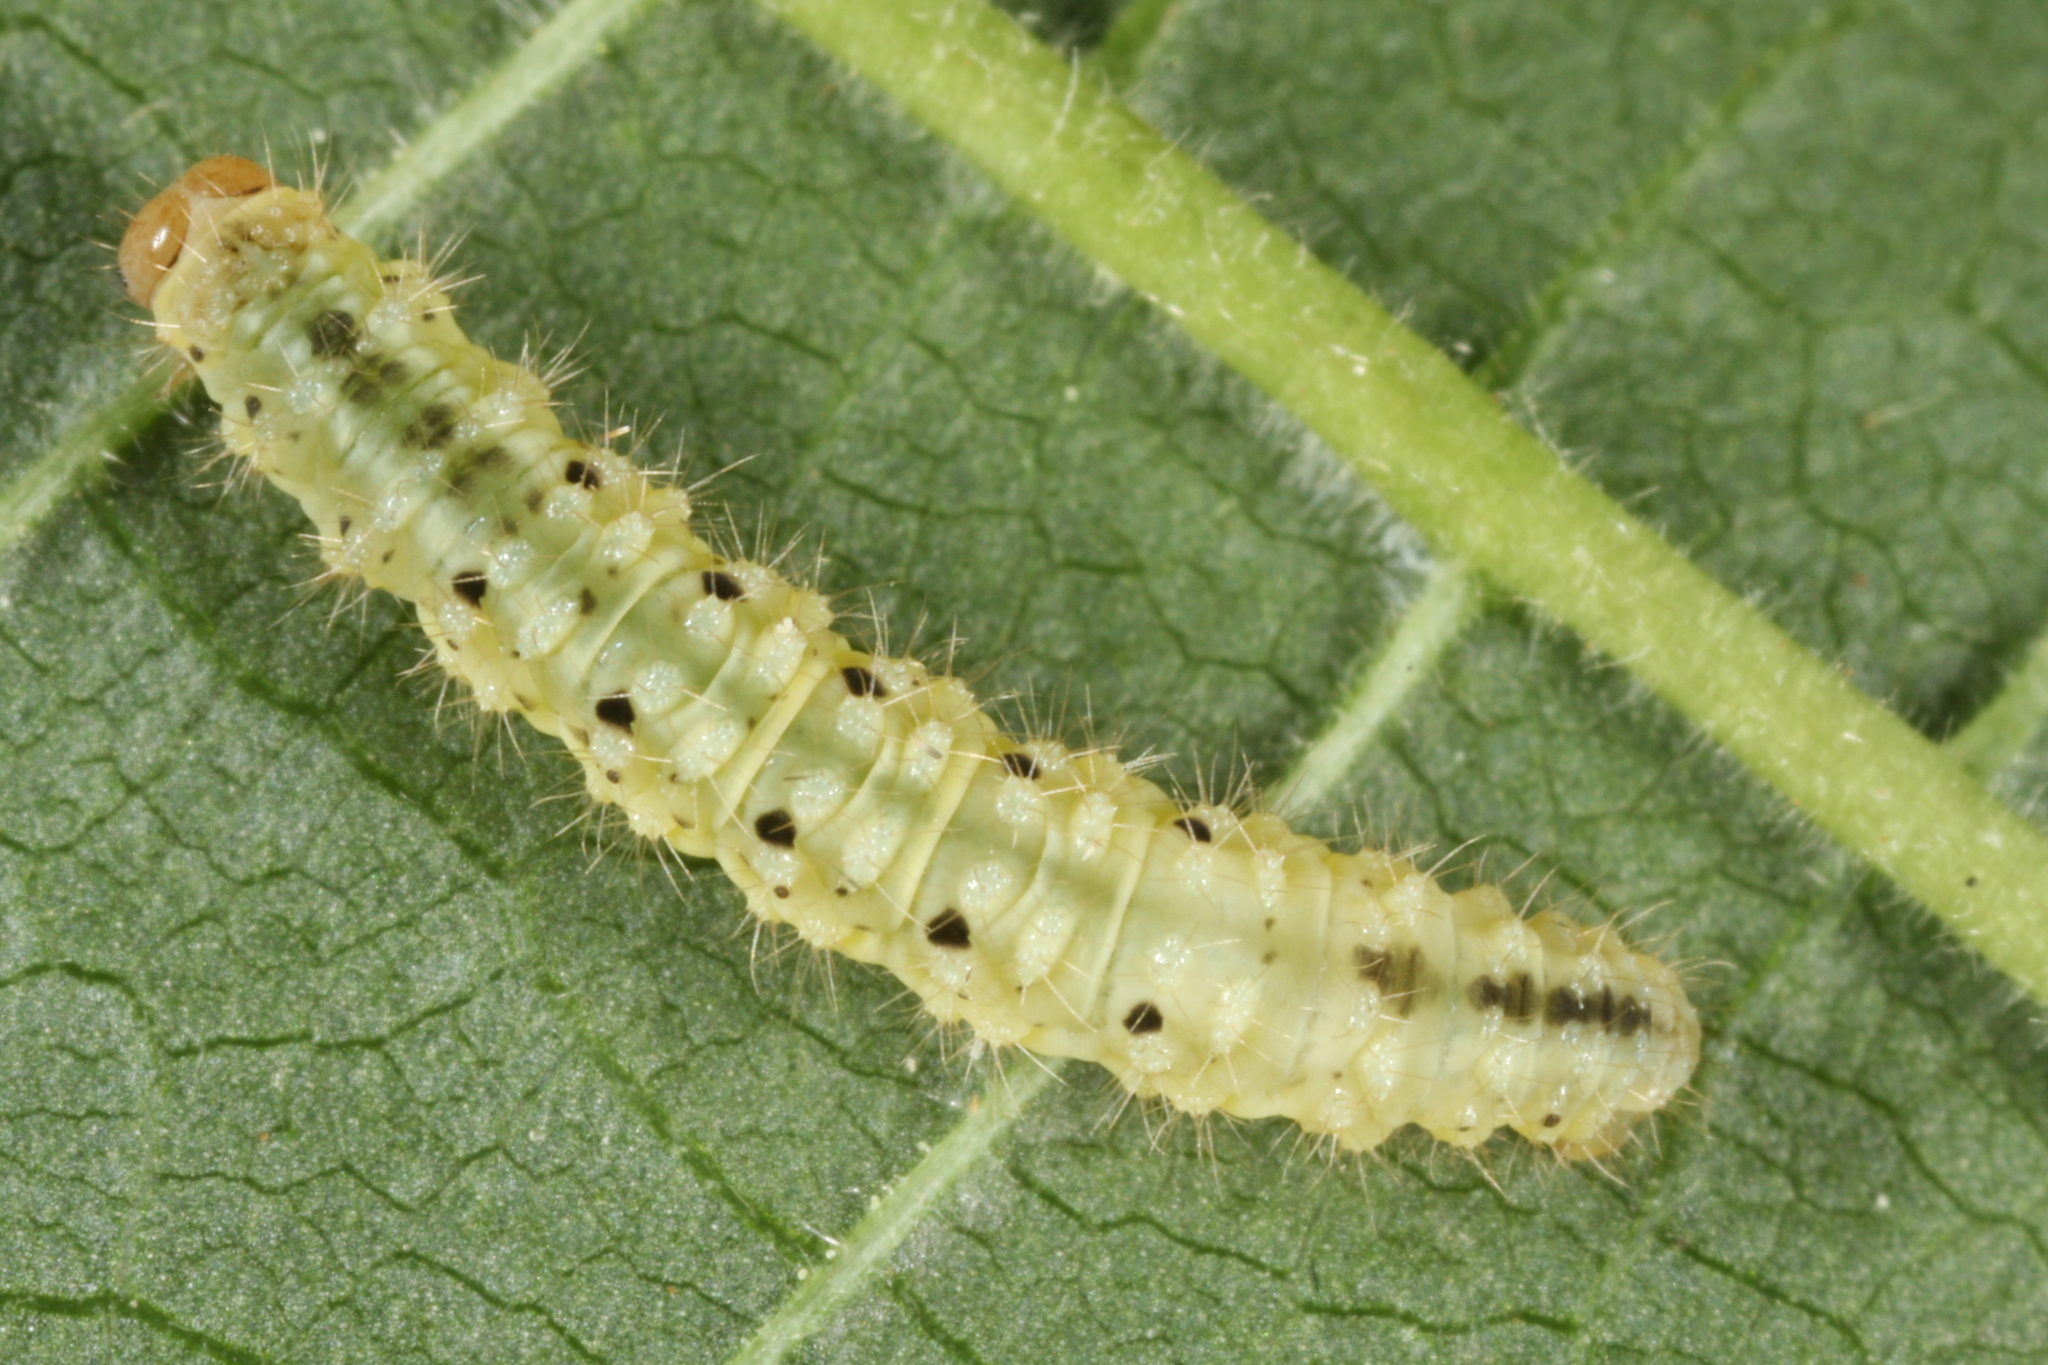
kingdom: Animalia
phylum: Arthropoda
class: Insecta
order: Lepidoptera
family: Geometridae
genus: Minoa
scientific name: Minoa murinata
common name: Drab looper
